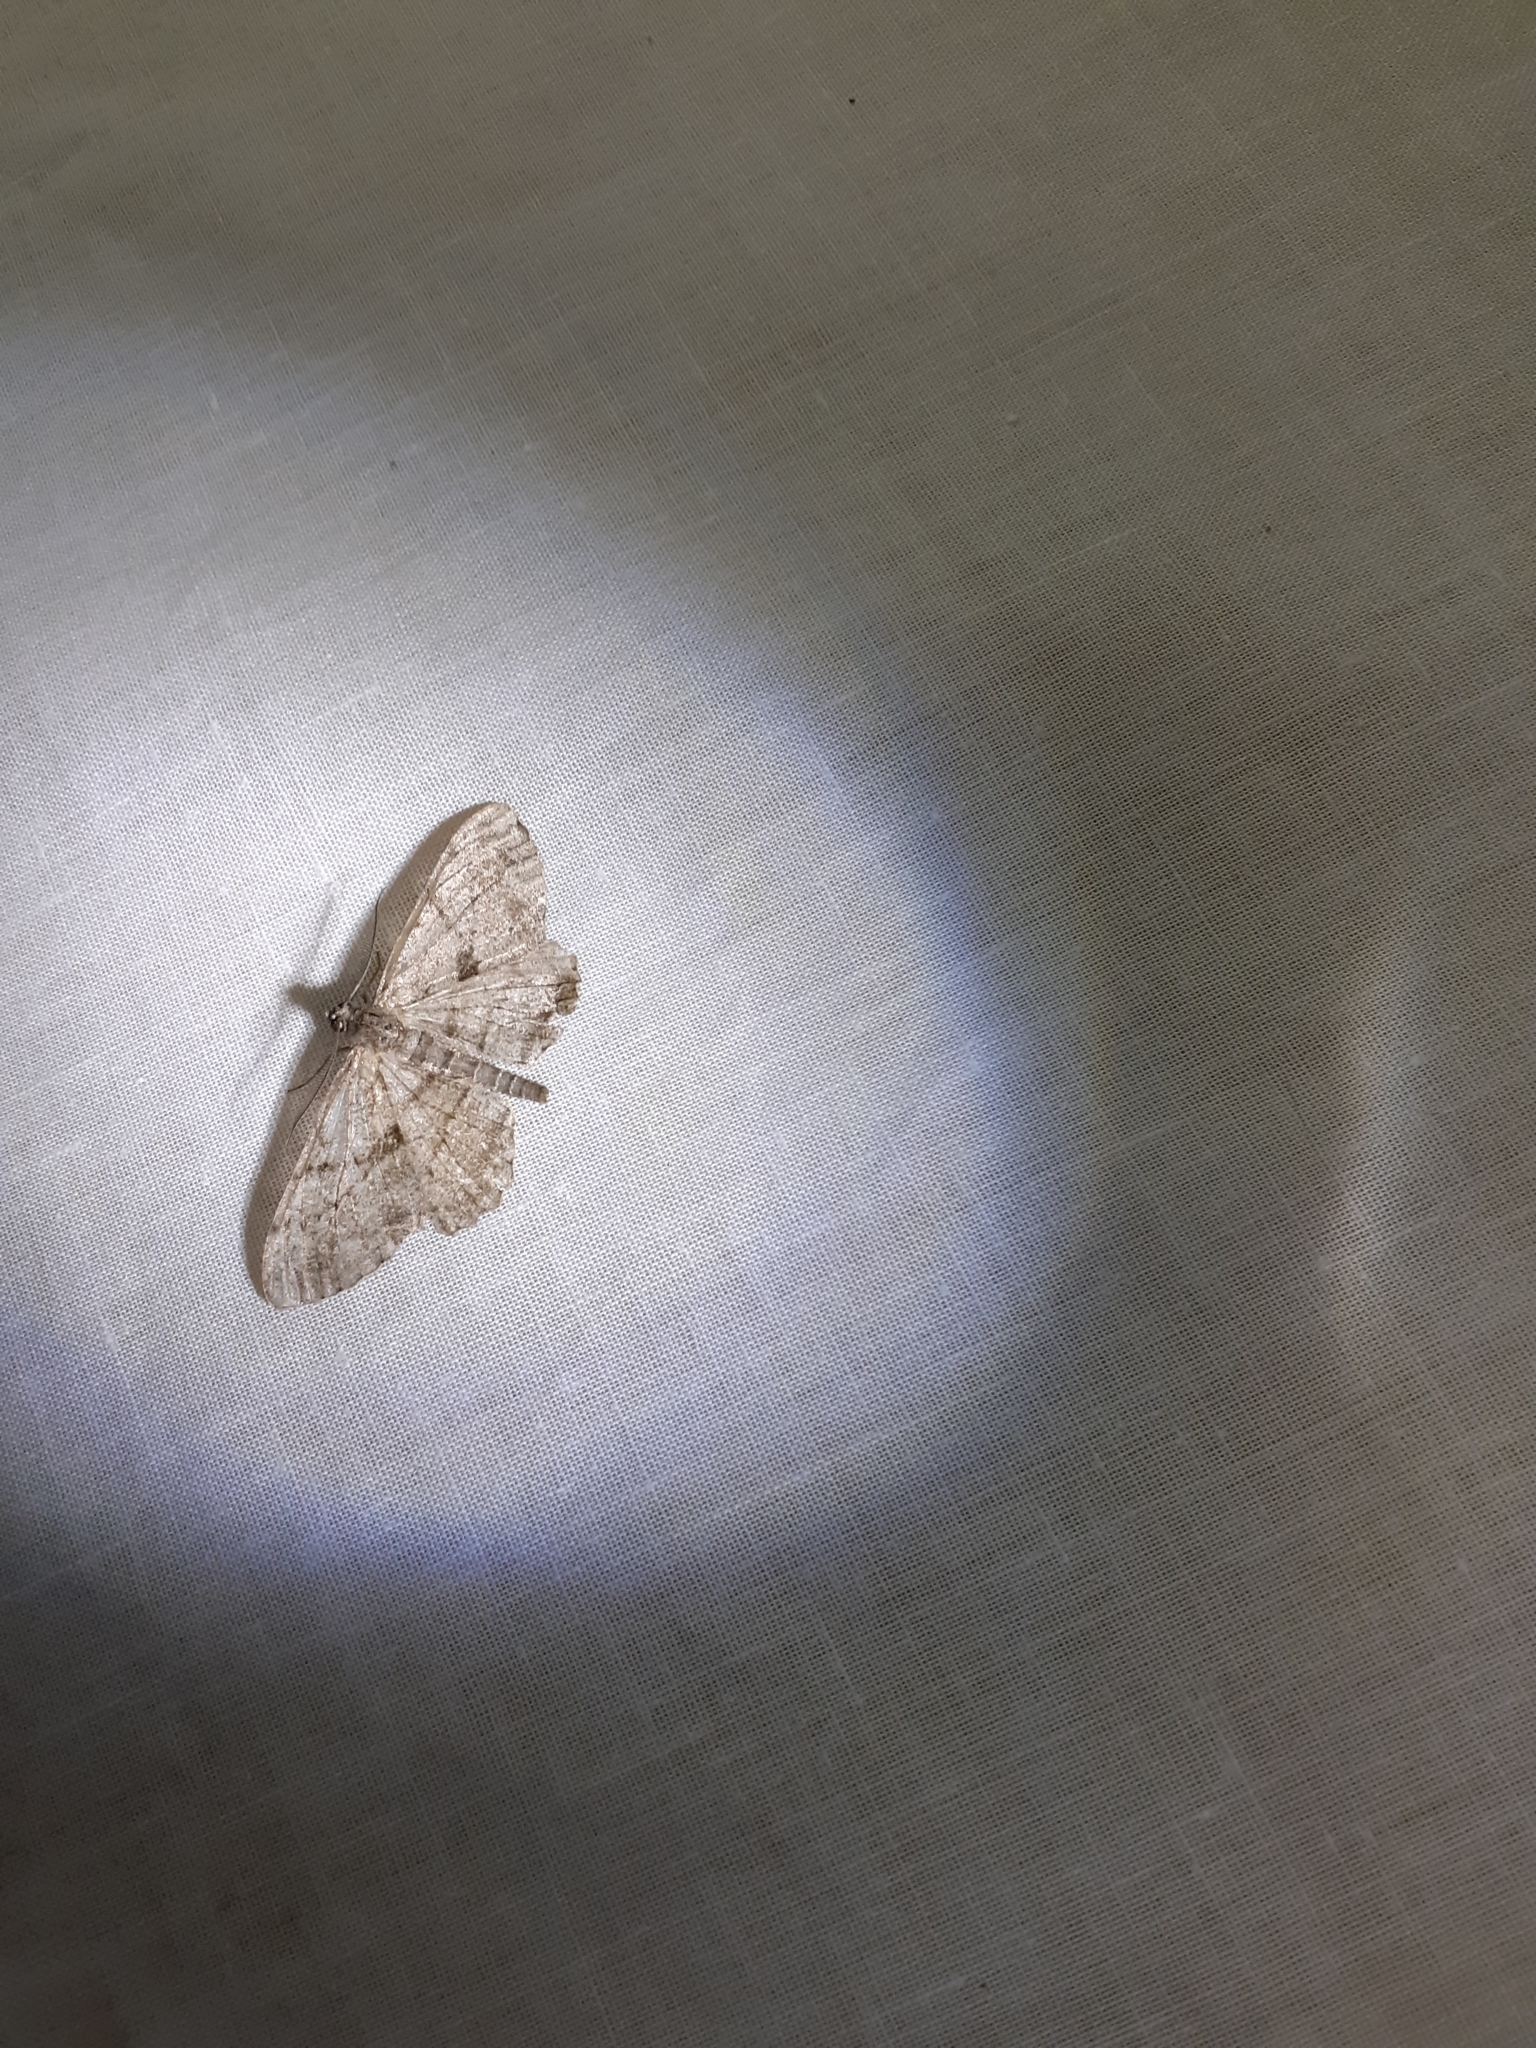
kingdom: Animalia
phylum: Arthropoda
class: Insecta
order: Lepidoptera
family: Geometridae
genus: Peribatodes
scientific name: Peribatodes rhomboidaria
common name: Willow beauty
